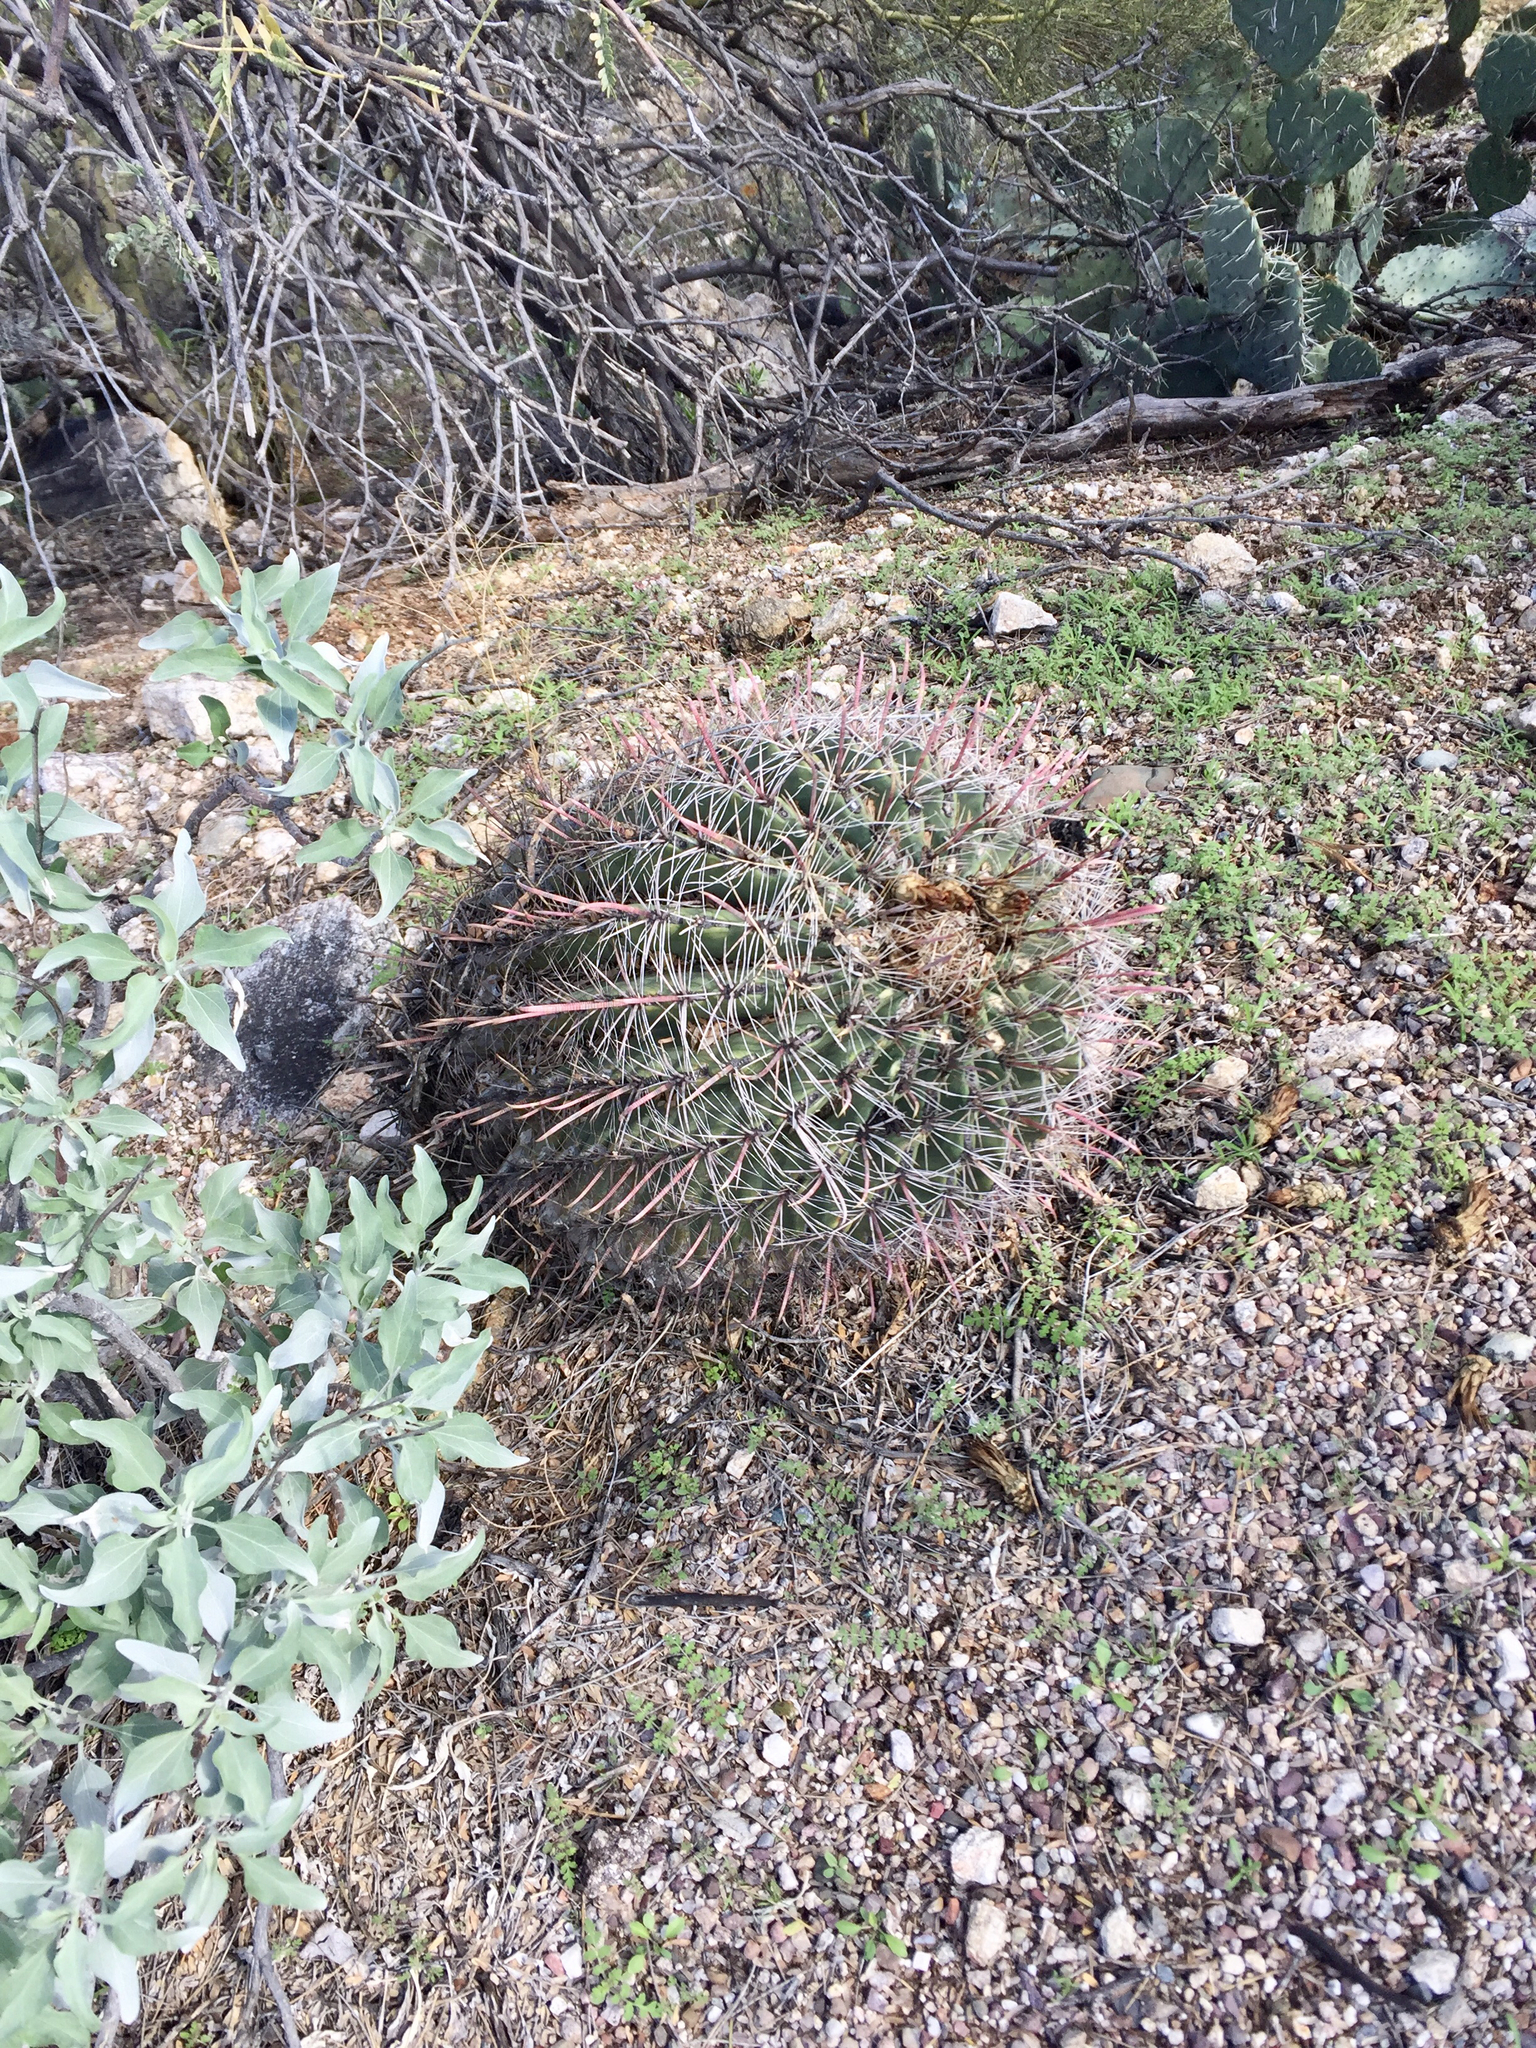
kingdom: Plantae
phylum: Tracheophyta
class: Magnoliopsida
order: Caryophyllales
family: Cactaceae
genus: Ferocactus
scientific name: Ferocactus wislizeni
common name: Candy barrel cactus
